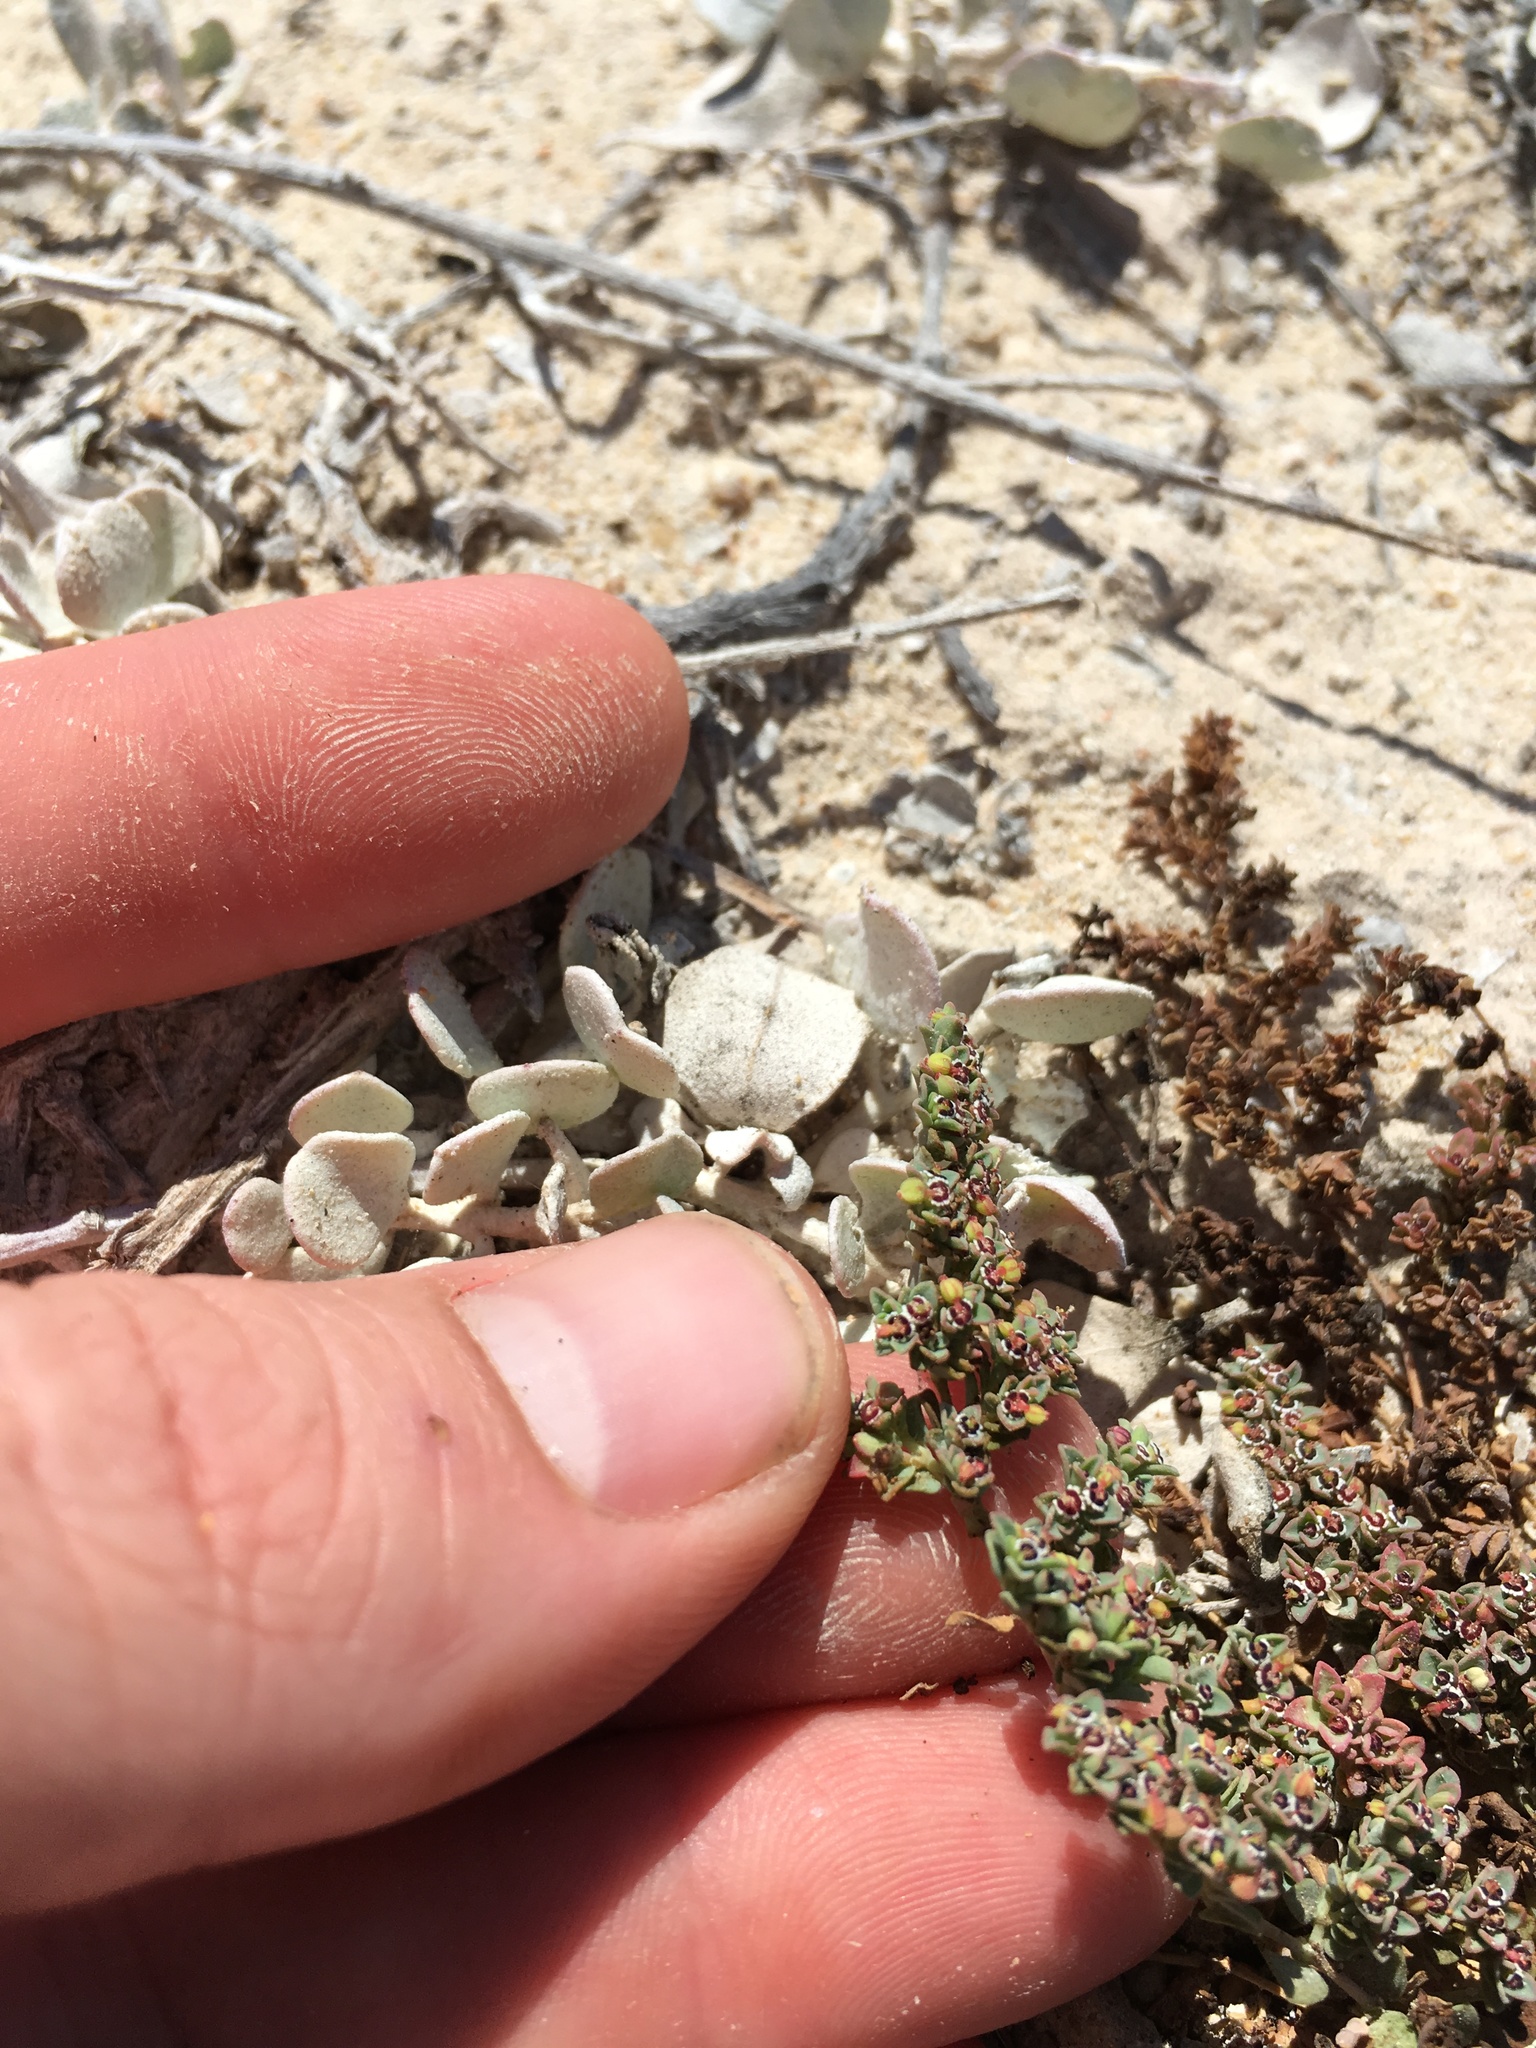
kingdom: Plantae
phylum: Tracheophyta
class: Magnoliopsida
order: Malpighiales
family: Euphorbiaceae
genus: Euphorbia
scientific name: Euphorbia polycarpa
